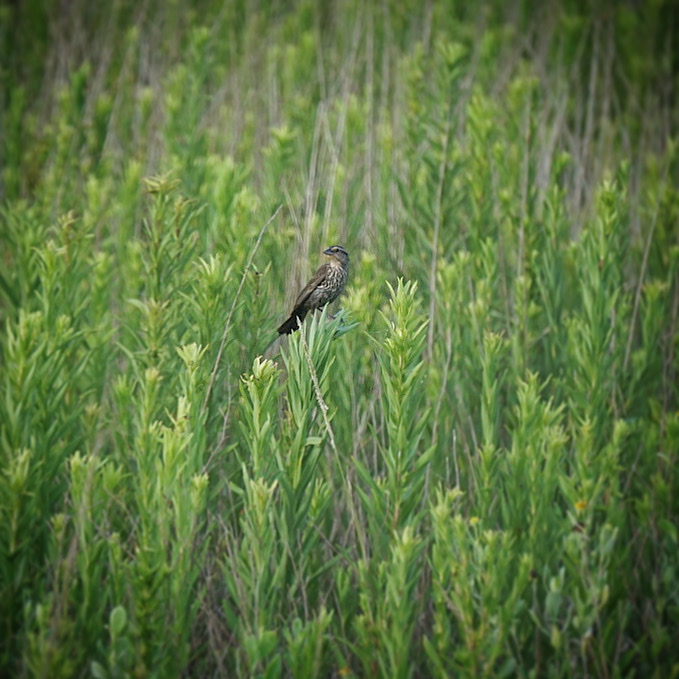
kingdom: Animalia
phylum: Chordata
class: Aves
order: Passeriformes
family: Icteridae
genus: Agelaius
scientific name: Agelaius phoeniceus
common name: Red-winged blackbird
